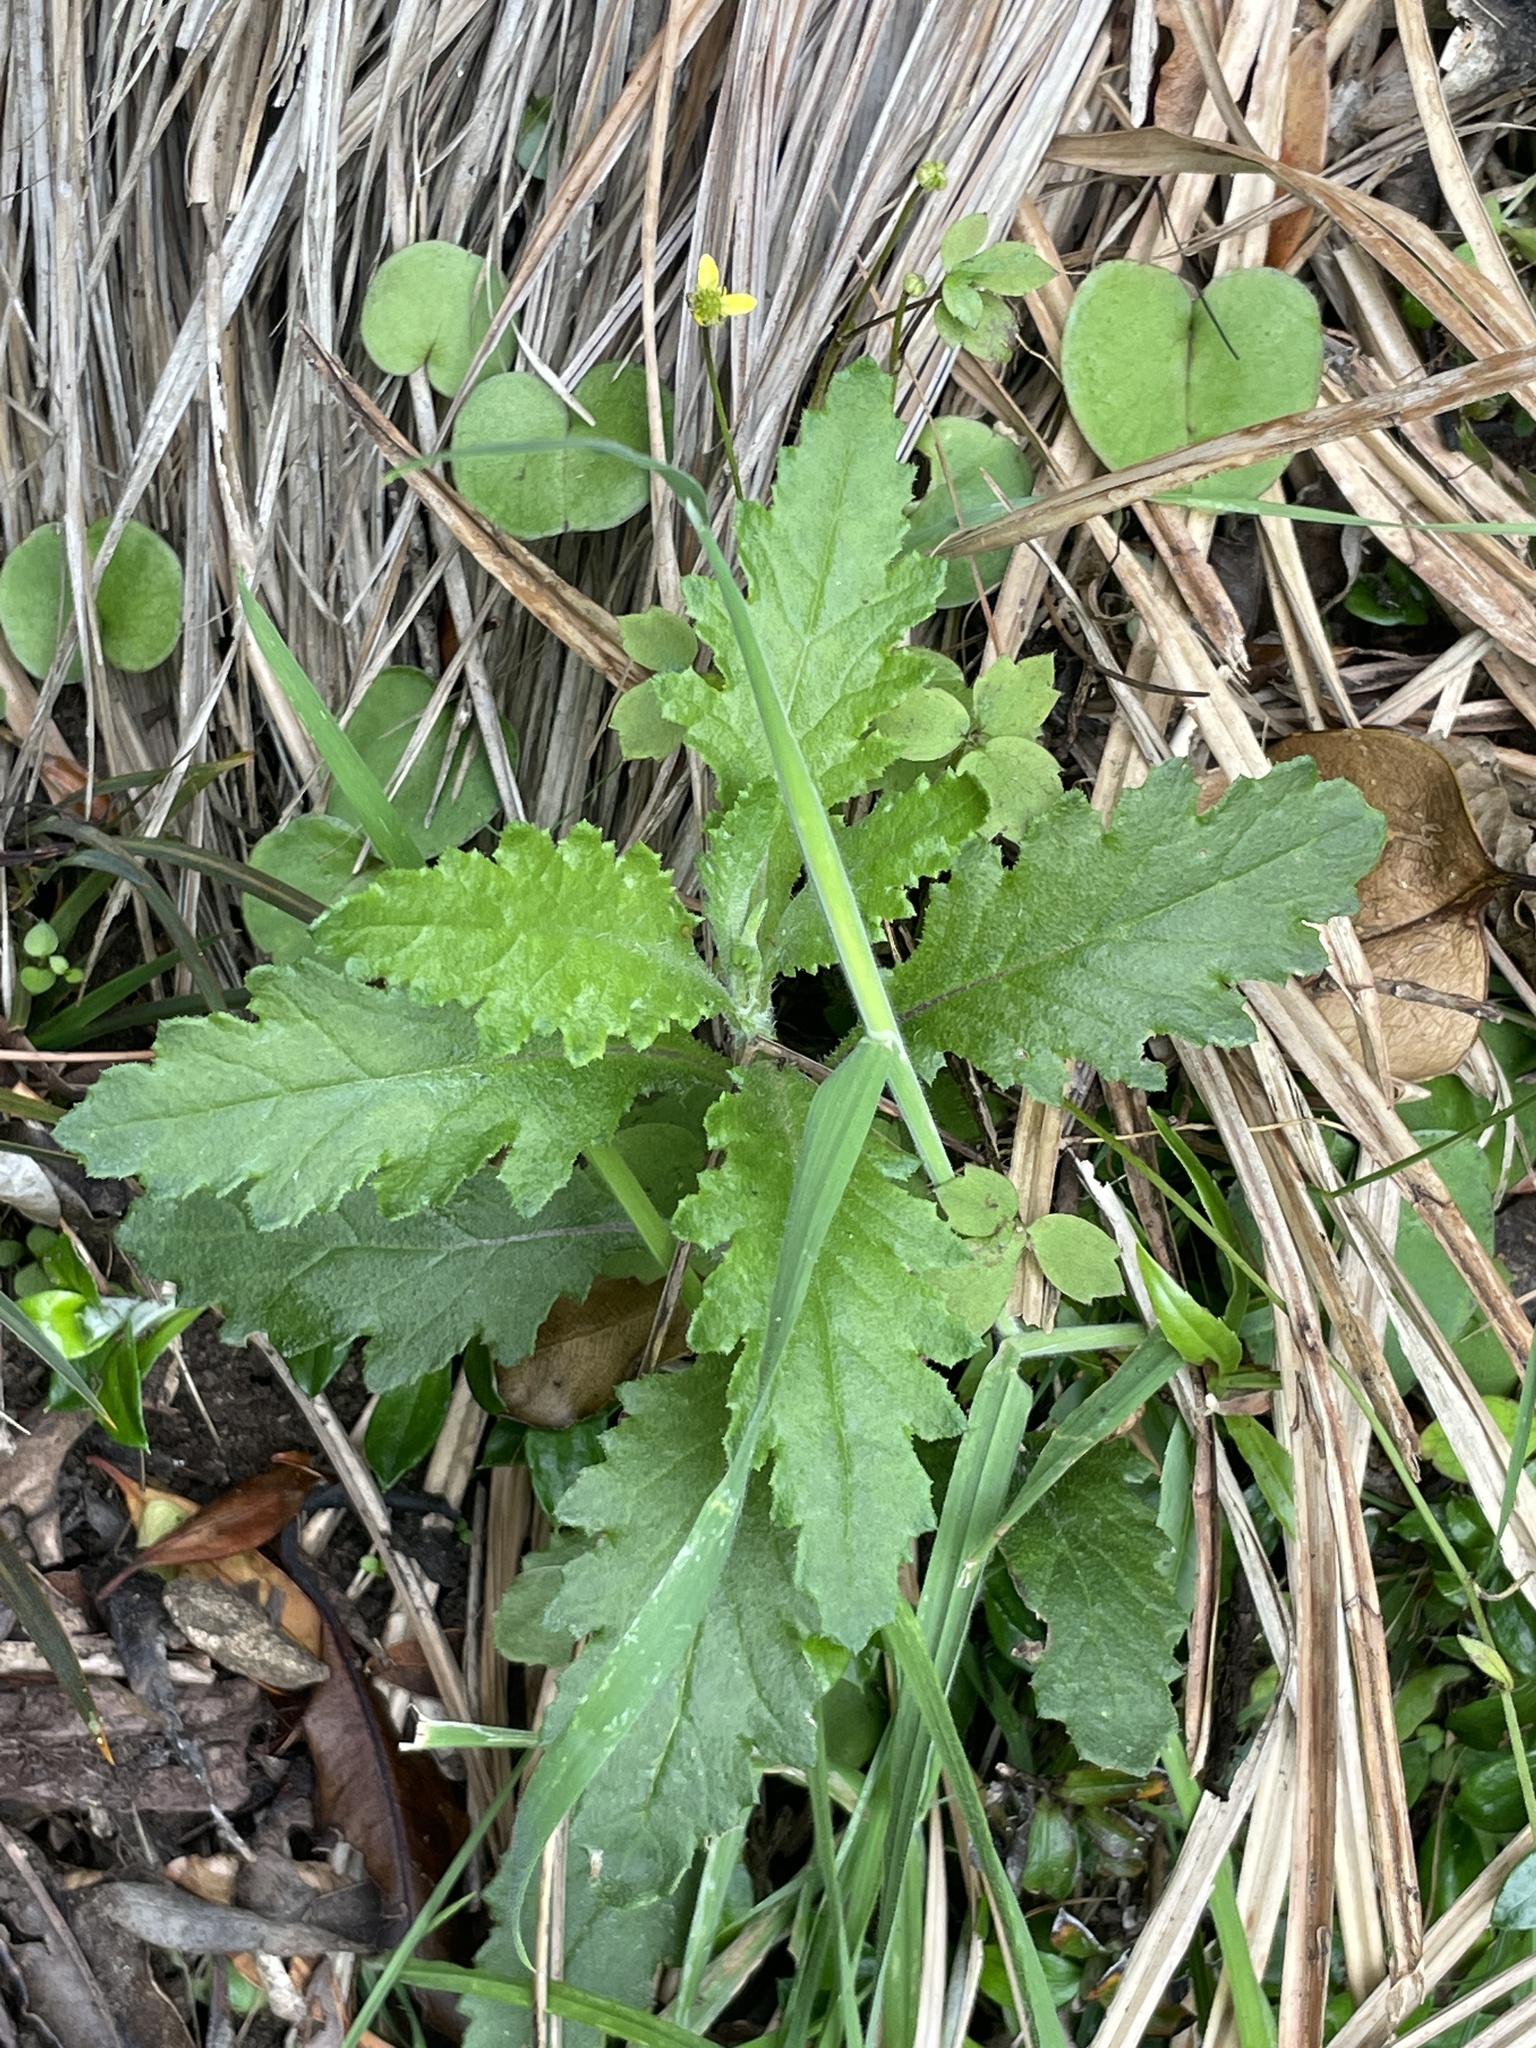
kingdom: Plantae
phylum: Tracheophyta
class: Magnoliopsida
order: Asterales
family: Asteraceae
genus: Senecio
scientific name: Senecio biserratus
